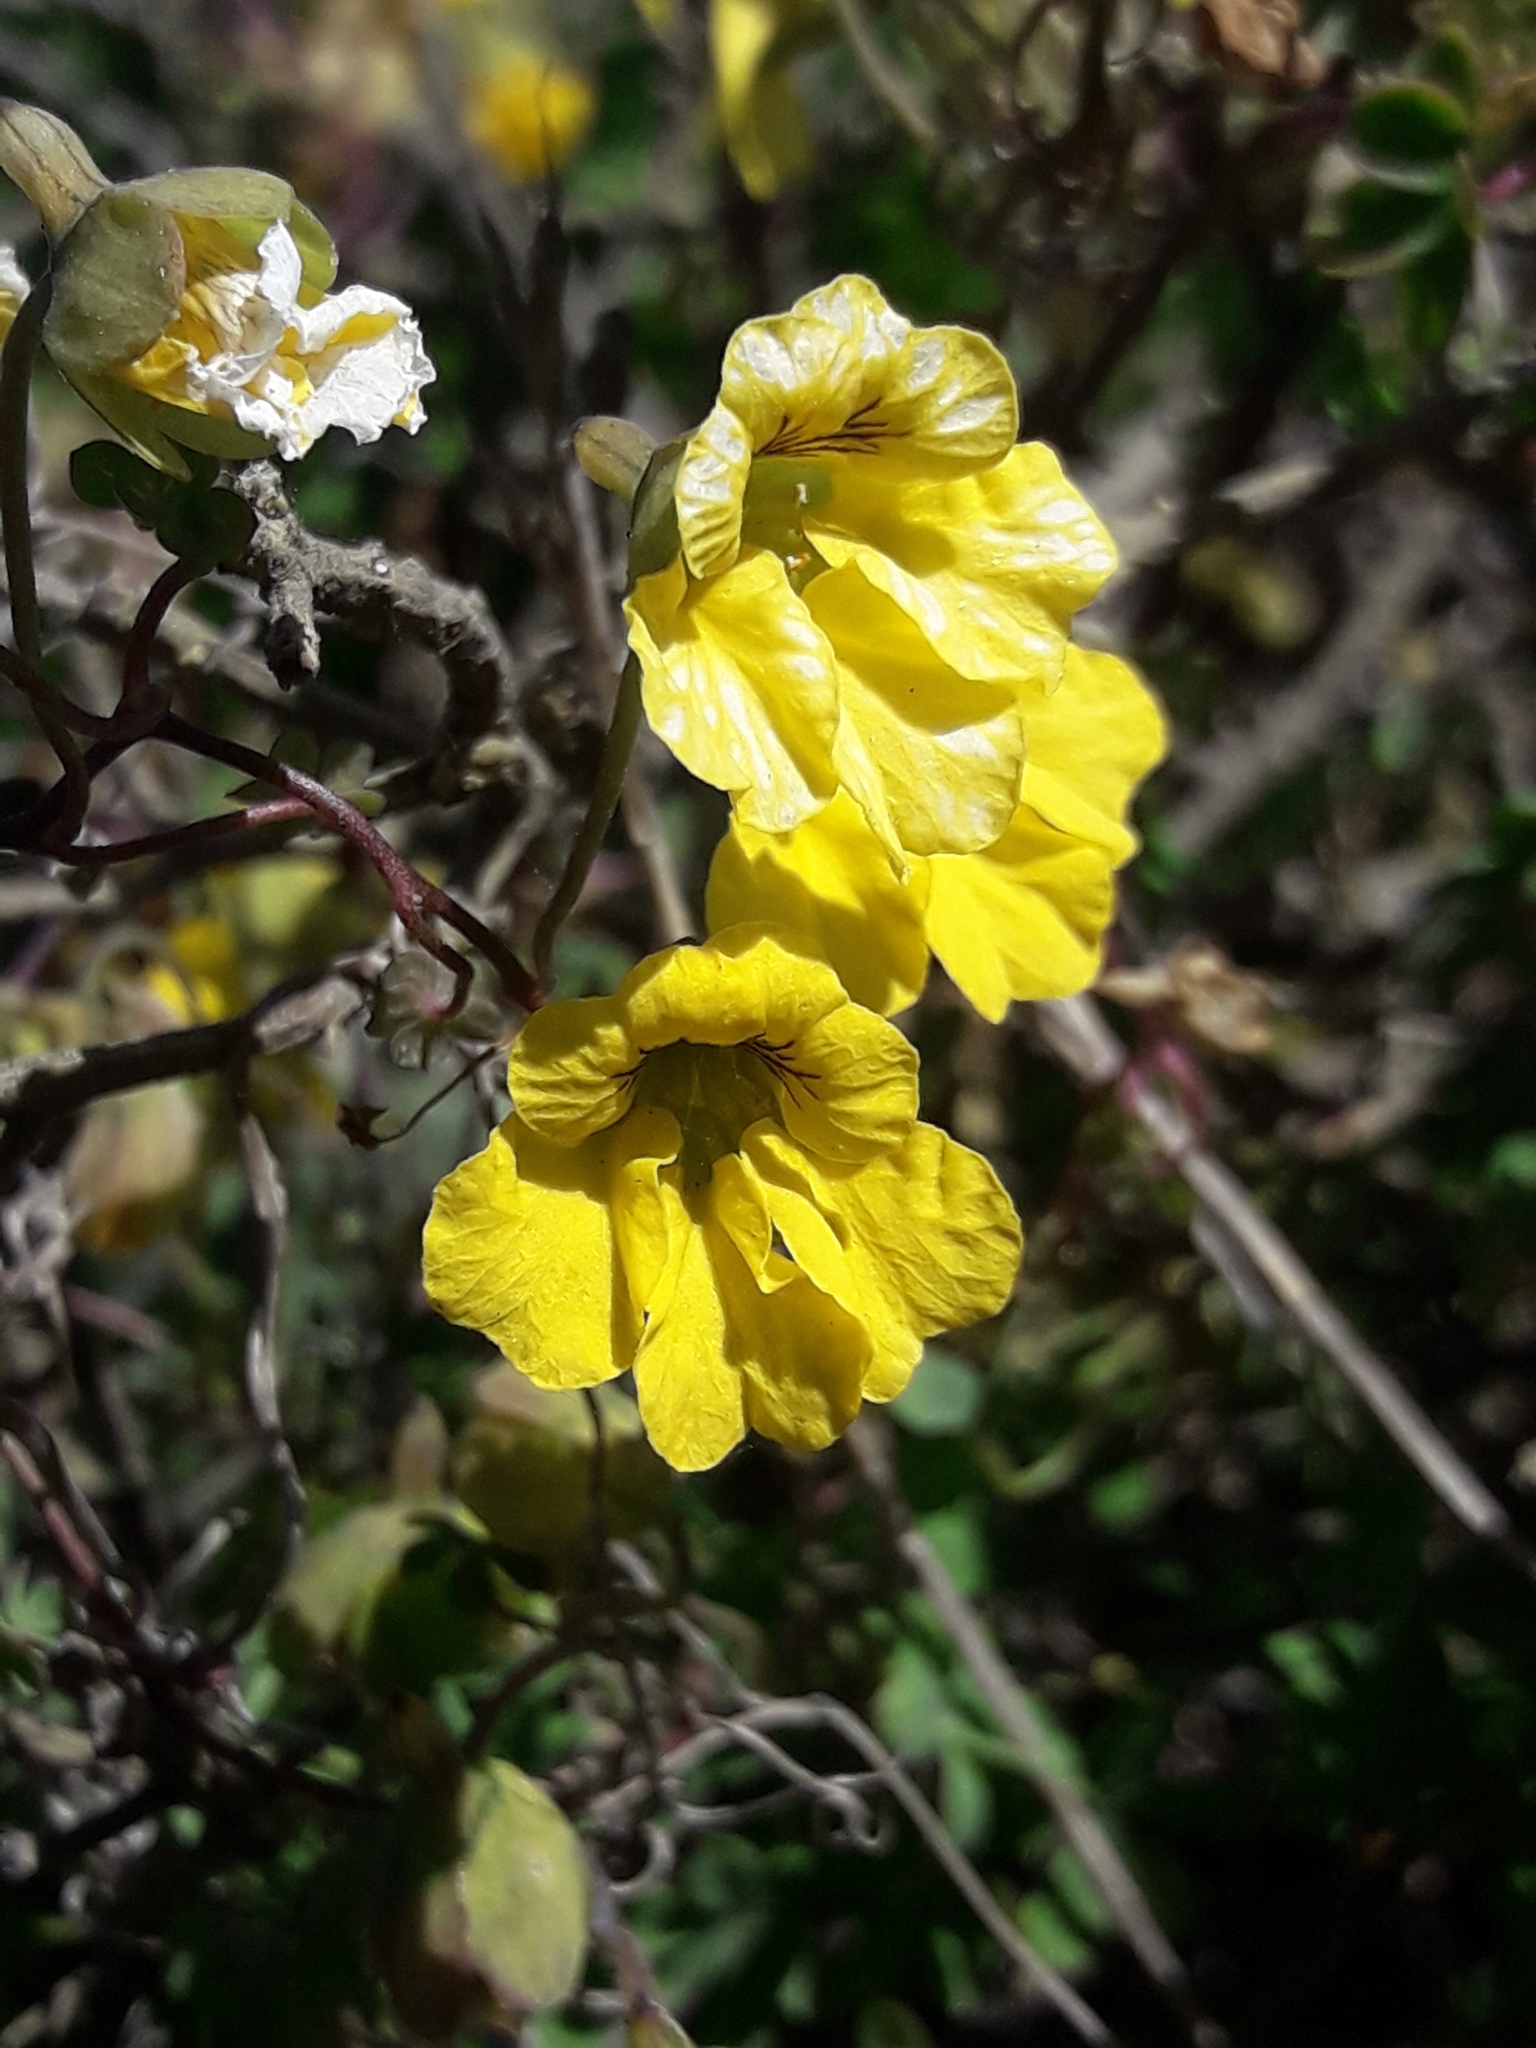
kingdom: Plantae
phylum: Tracheophyta
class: Magnoliopsida
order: Brassicales
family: Tropaeolaceae
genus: Tropaeolum
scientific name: Tropaeolum brachyceras
